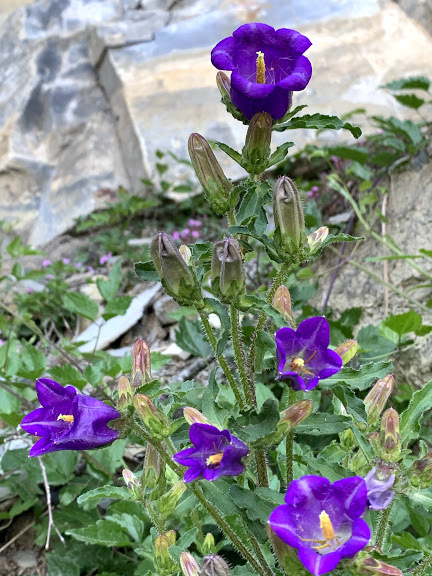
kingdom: Plantae
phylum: Tracheophyta
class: Magnoliopsida
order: Asterales
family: Campanulaceae
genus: Campanula
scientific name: Campanula medium
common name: Canterbury bells
